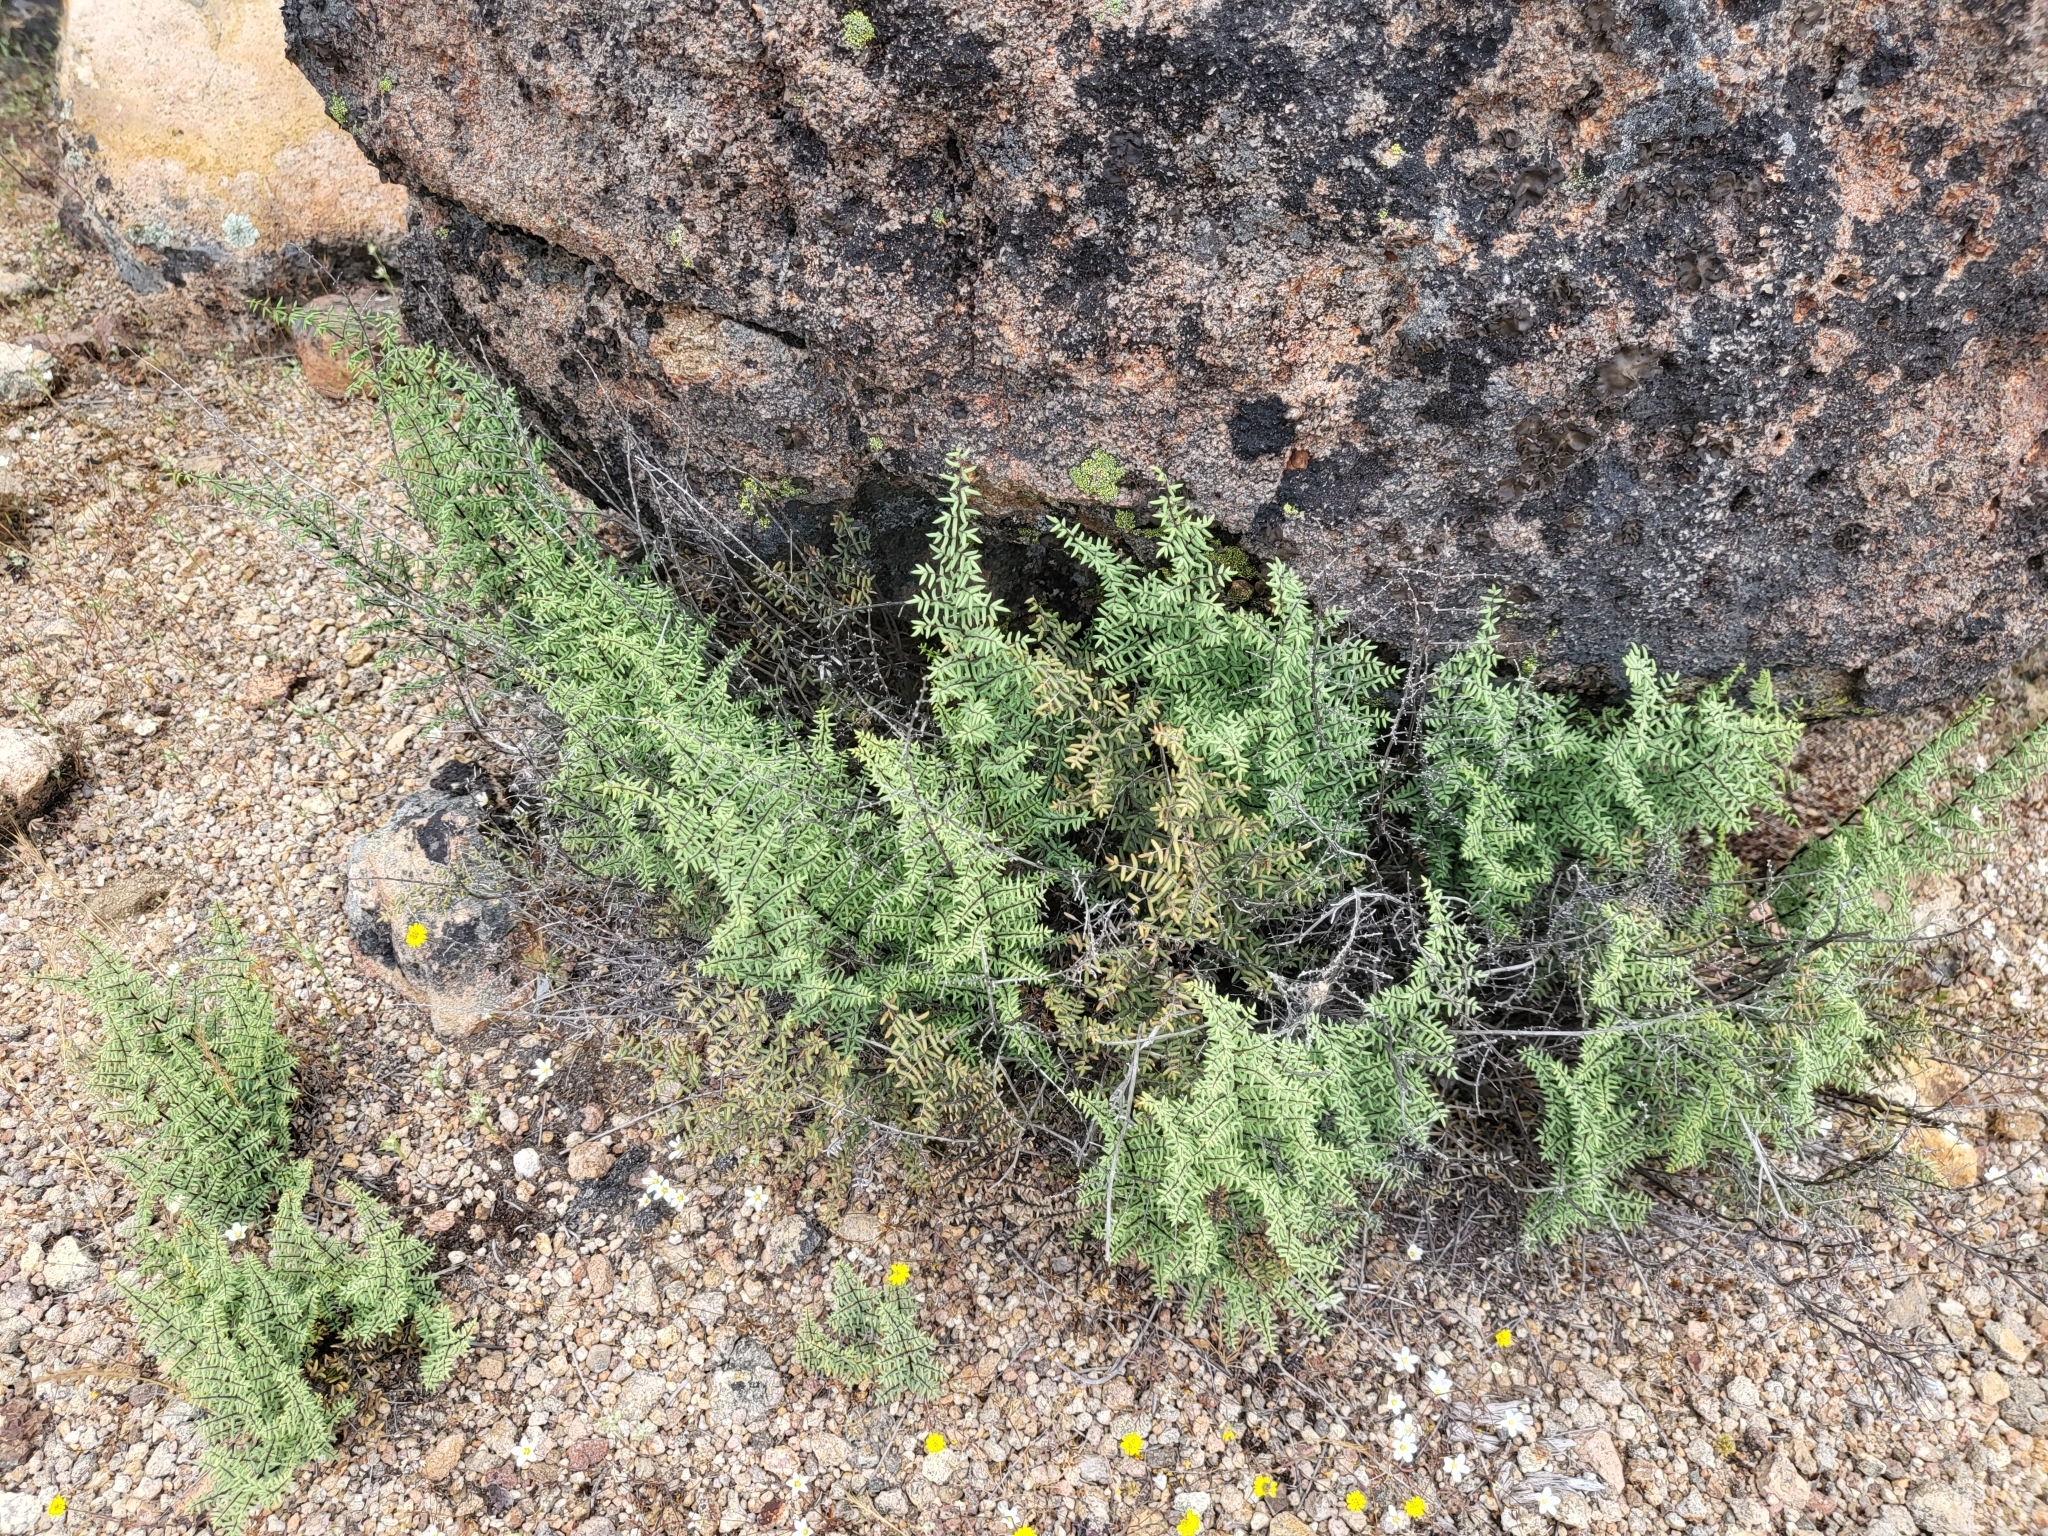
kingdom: Plantae
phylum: Tracheophyta
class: Polypodiopsida
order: Polypodiales
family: Pteridaceae
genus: Pellaea
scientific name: Pellaea mucronata
